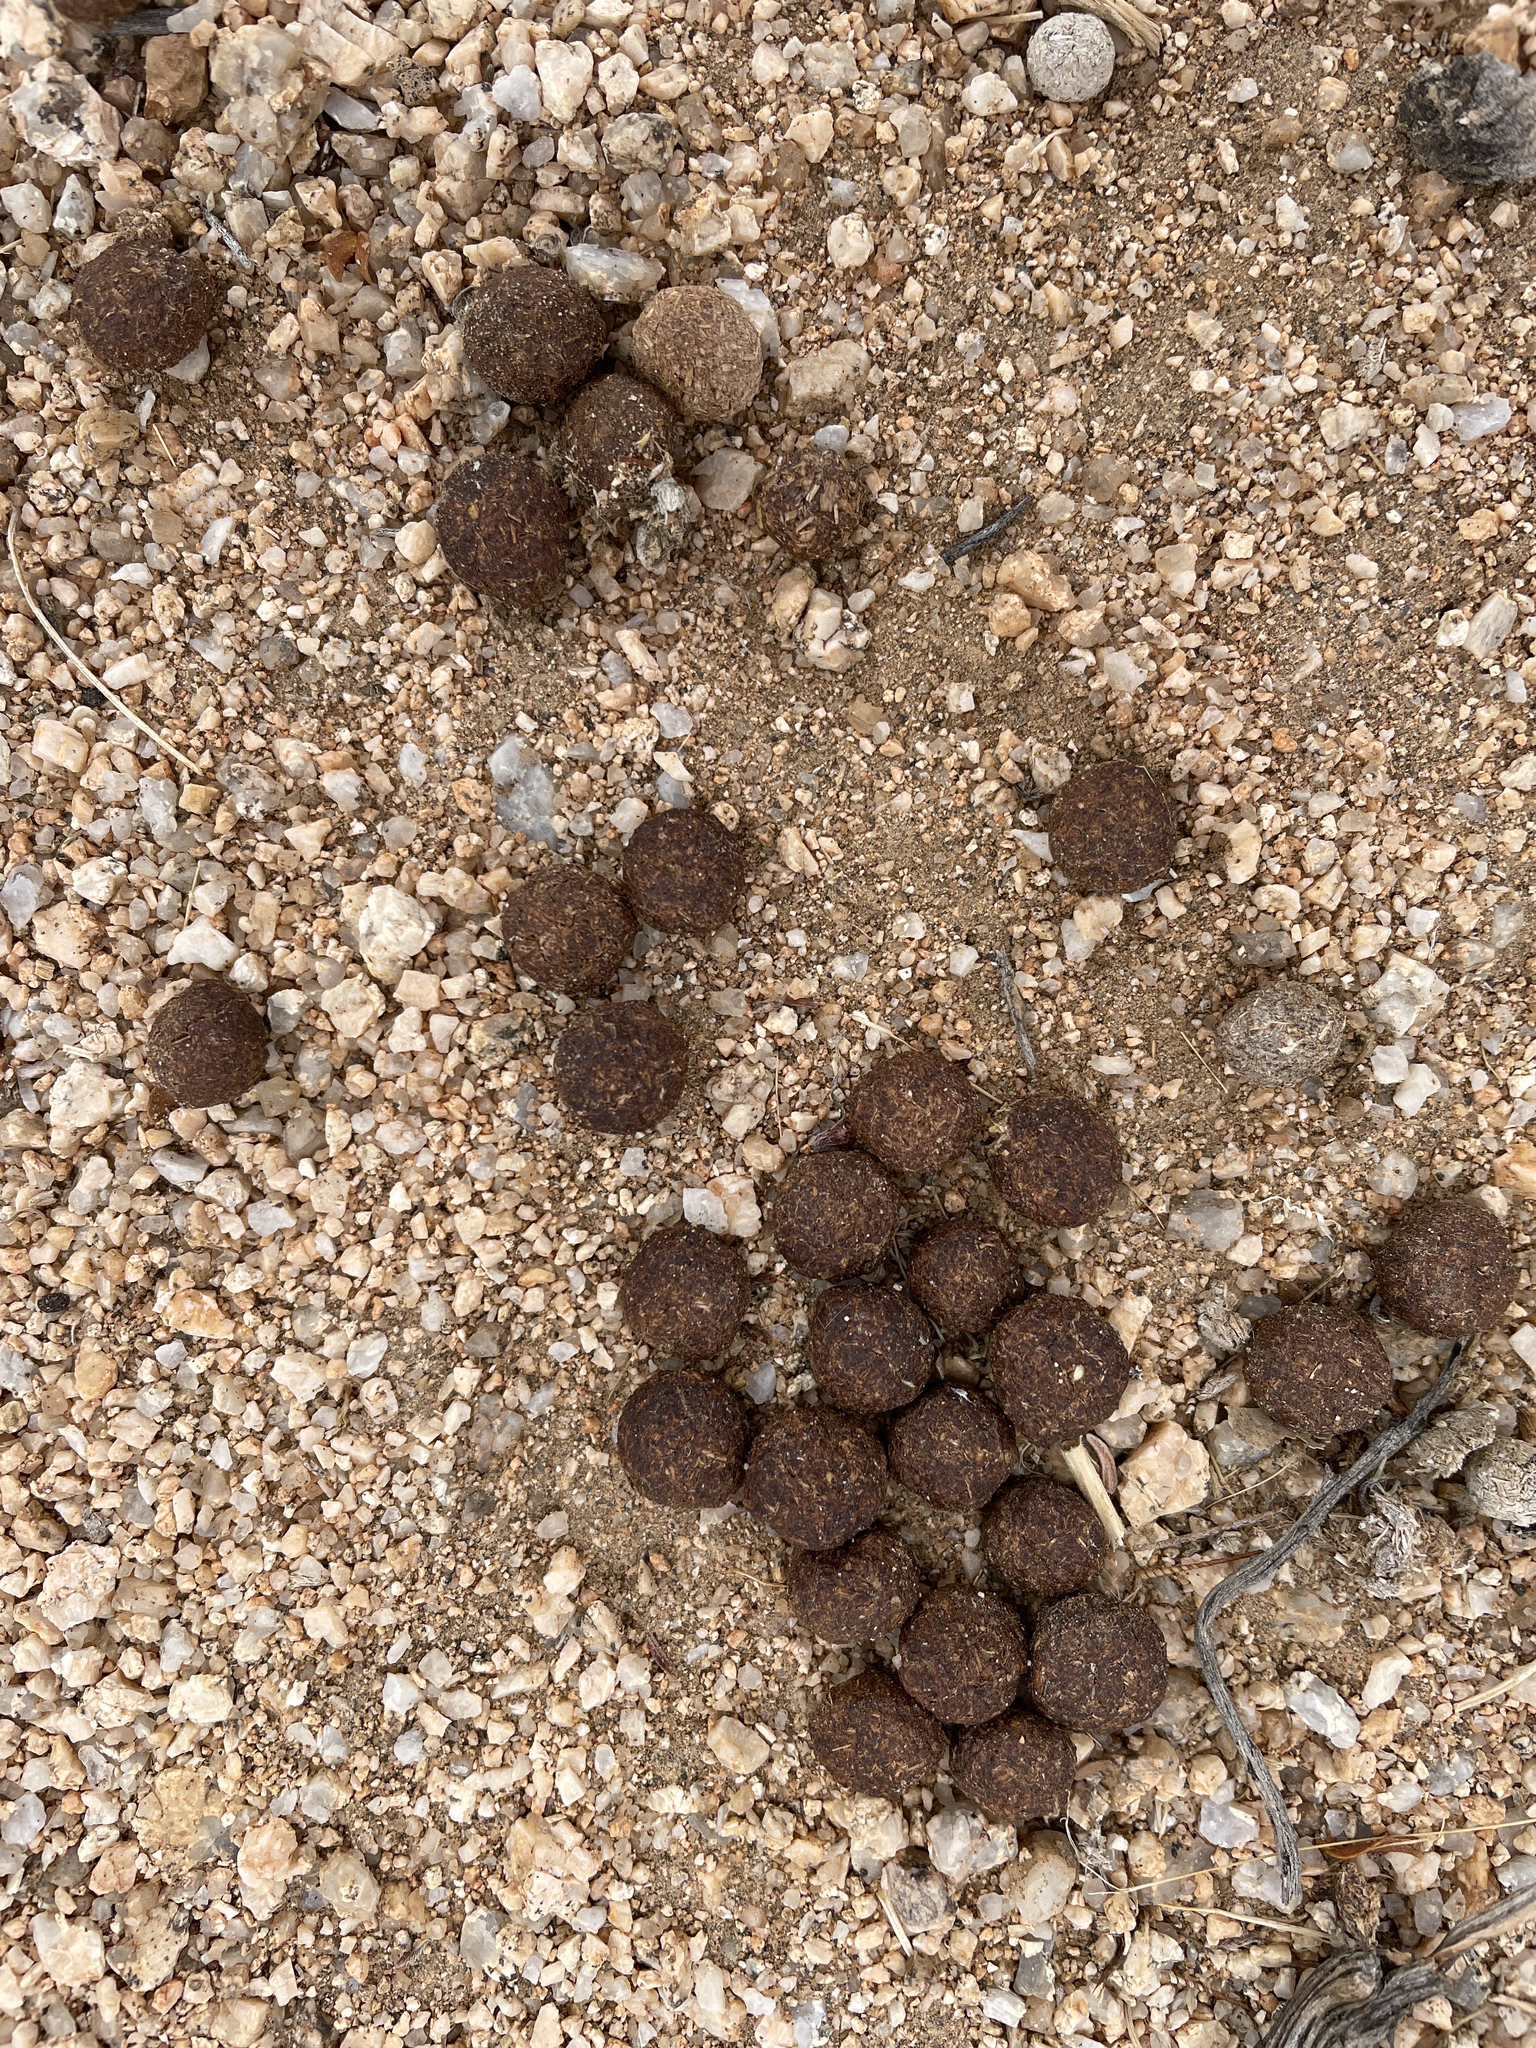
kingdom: Animalia
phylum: Chordata
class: Mammalia
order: Lagomorpha
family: Leporidae
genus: Lepus
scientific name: Lepus californicus
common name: Black-tailed jackrabbit
